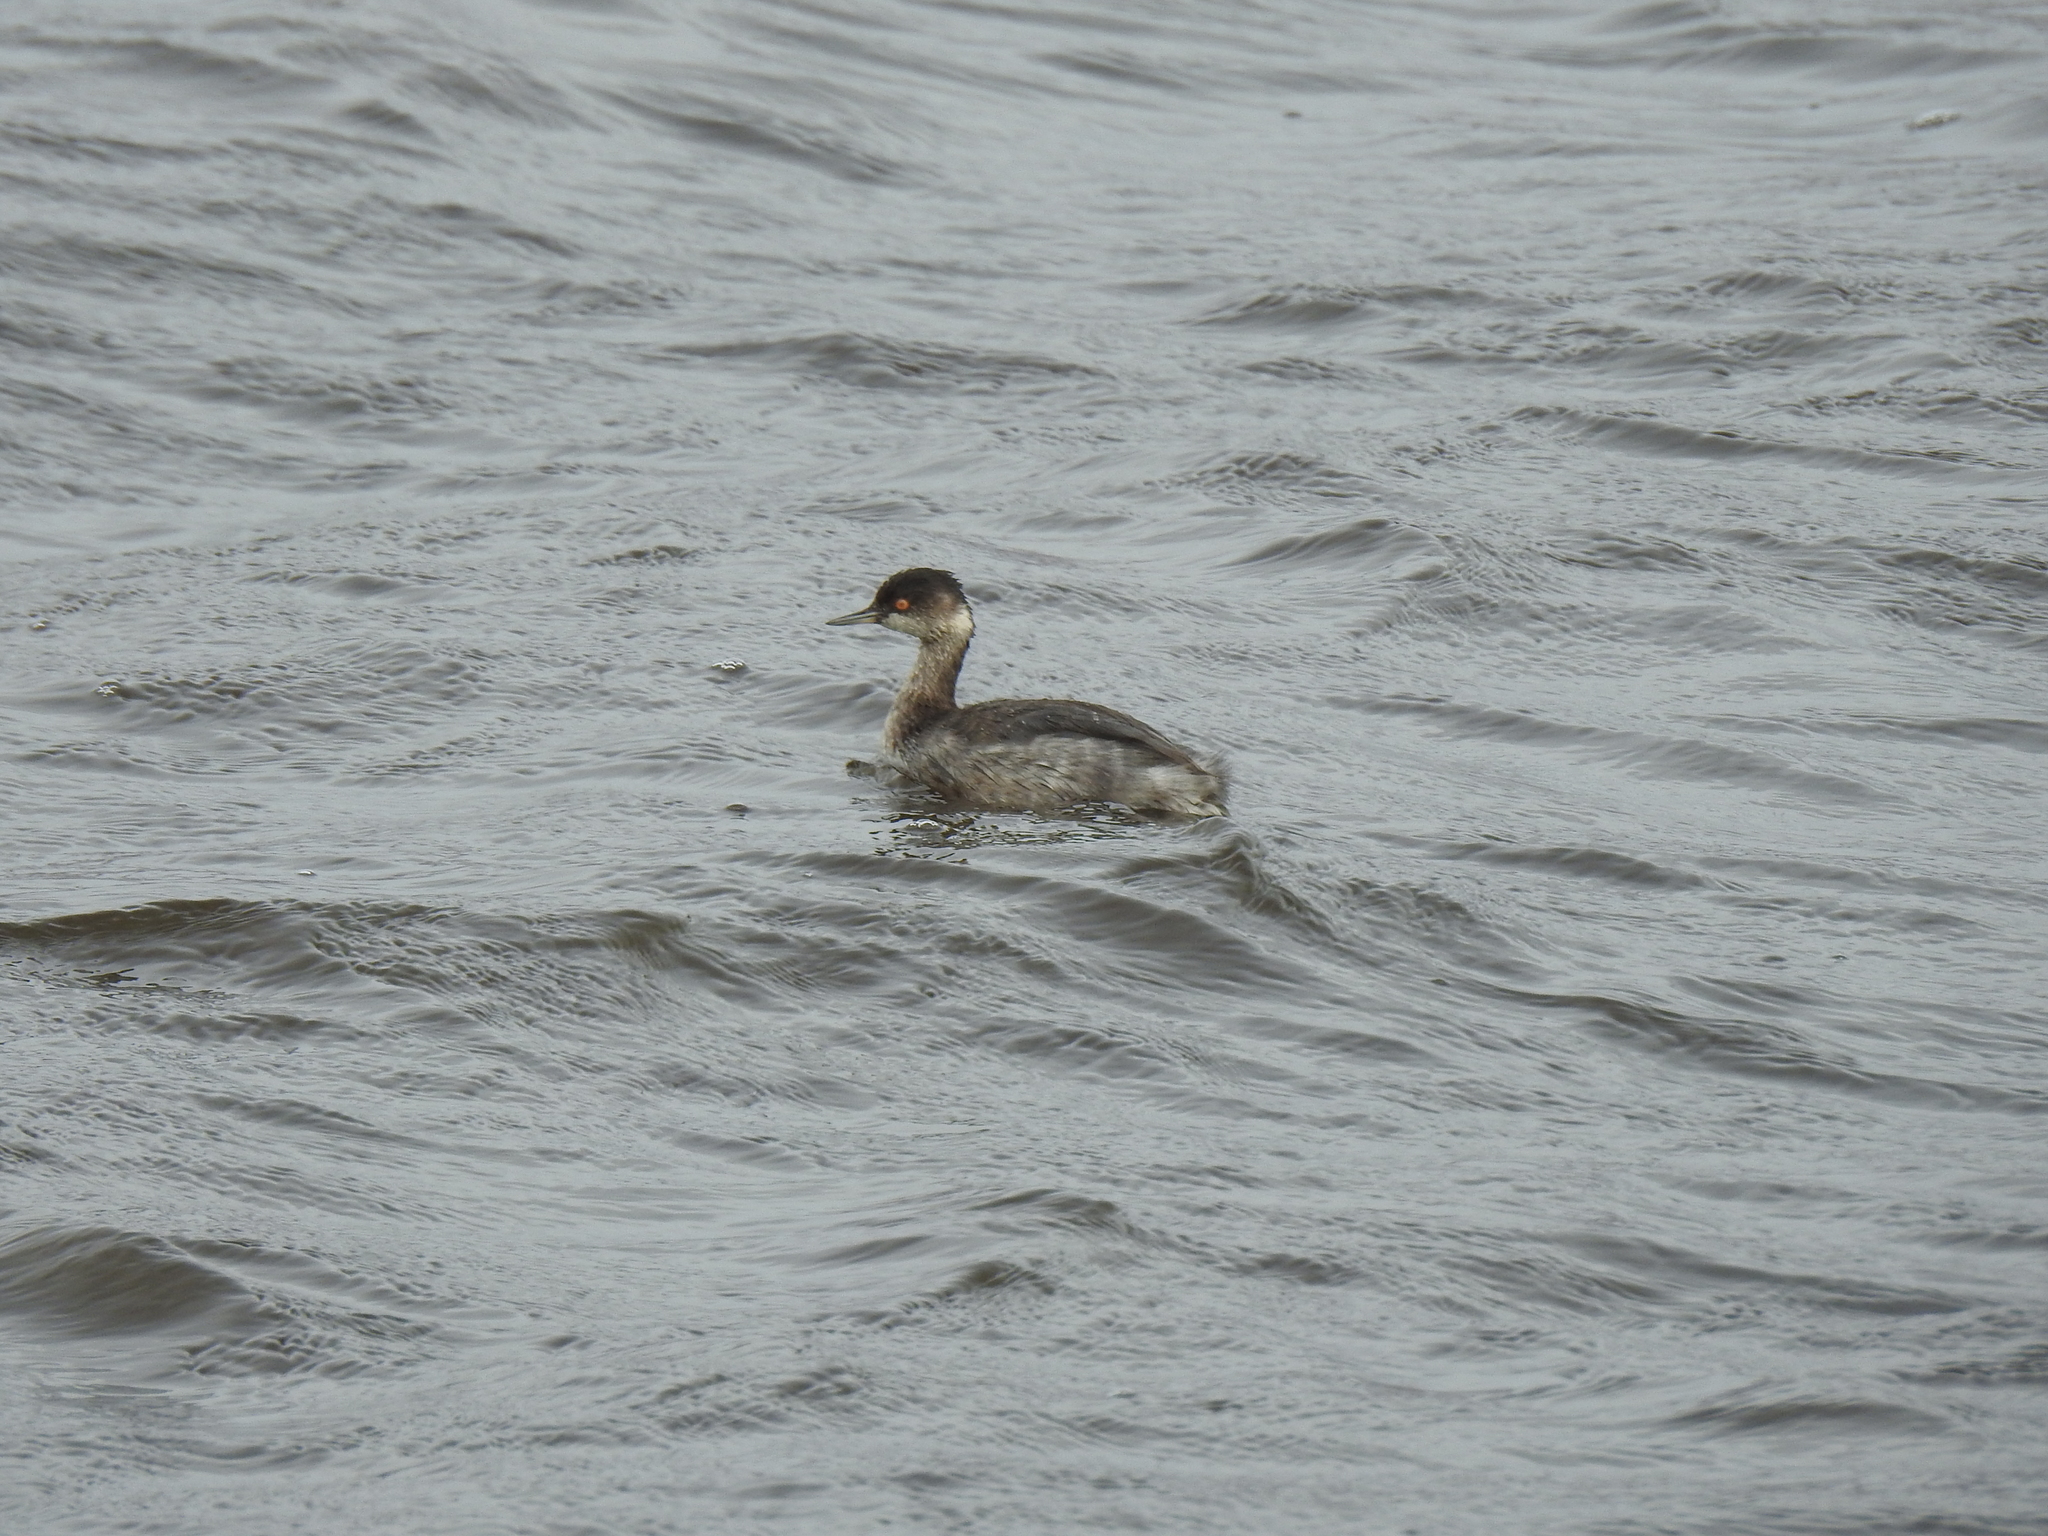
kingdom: Animalia
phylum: Chordata
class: Aves
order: Podicipediformes
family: Podicipedidae
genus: Podiceps
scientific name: Podiceps nigricollis
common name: Black-necked grebe
